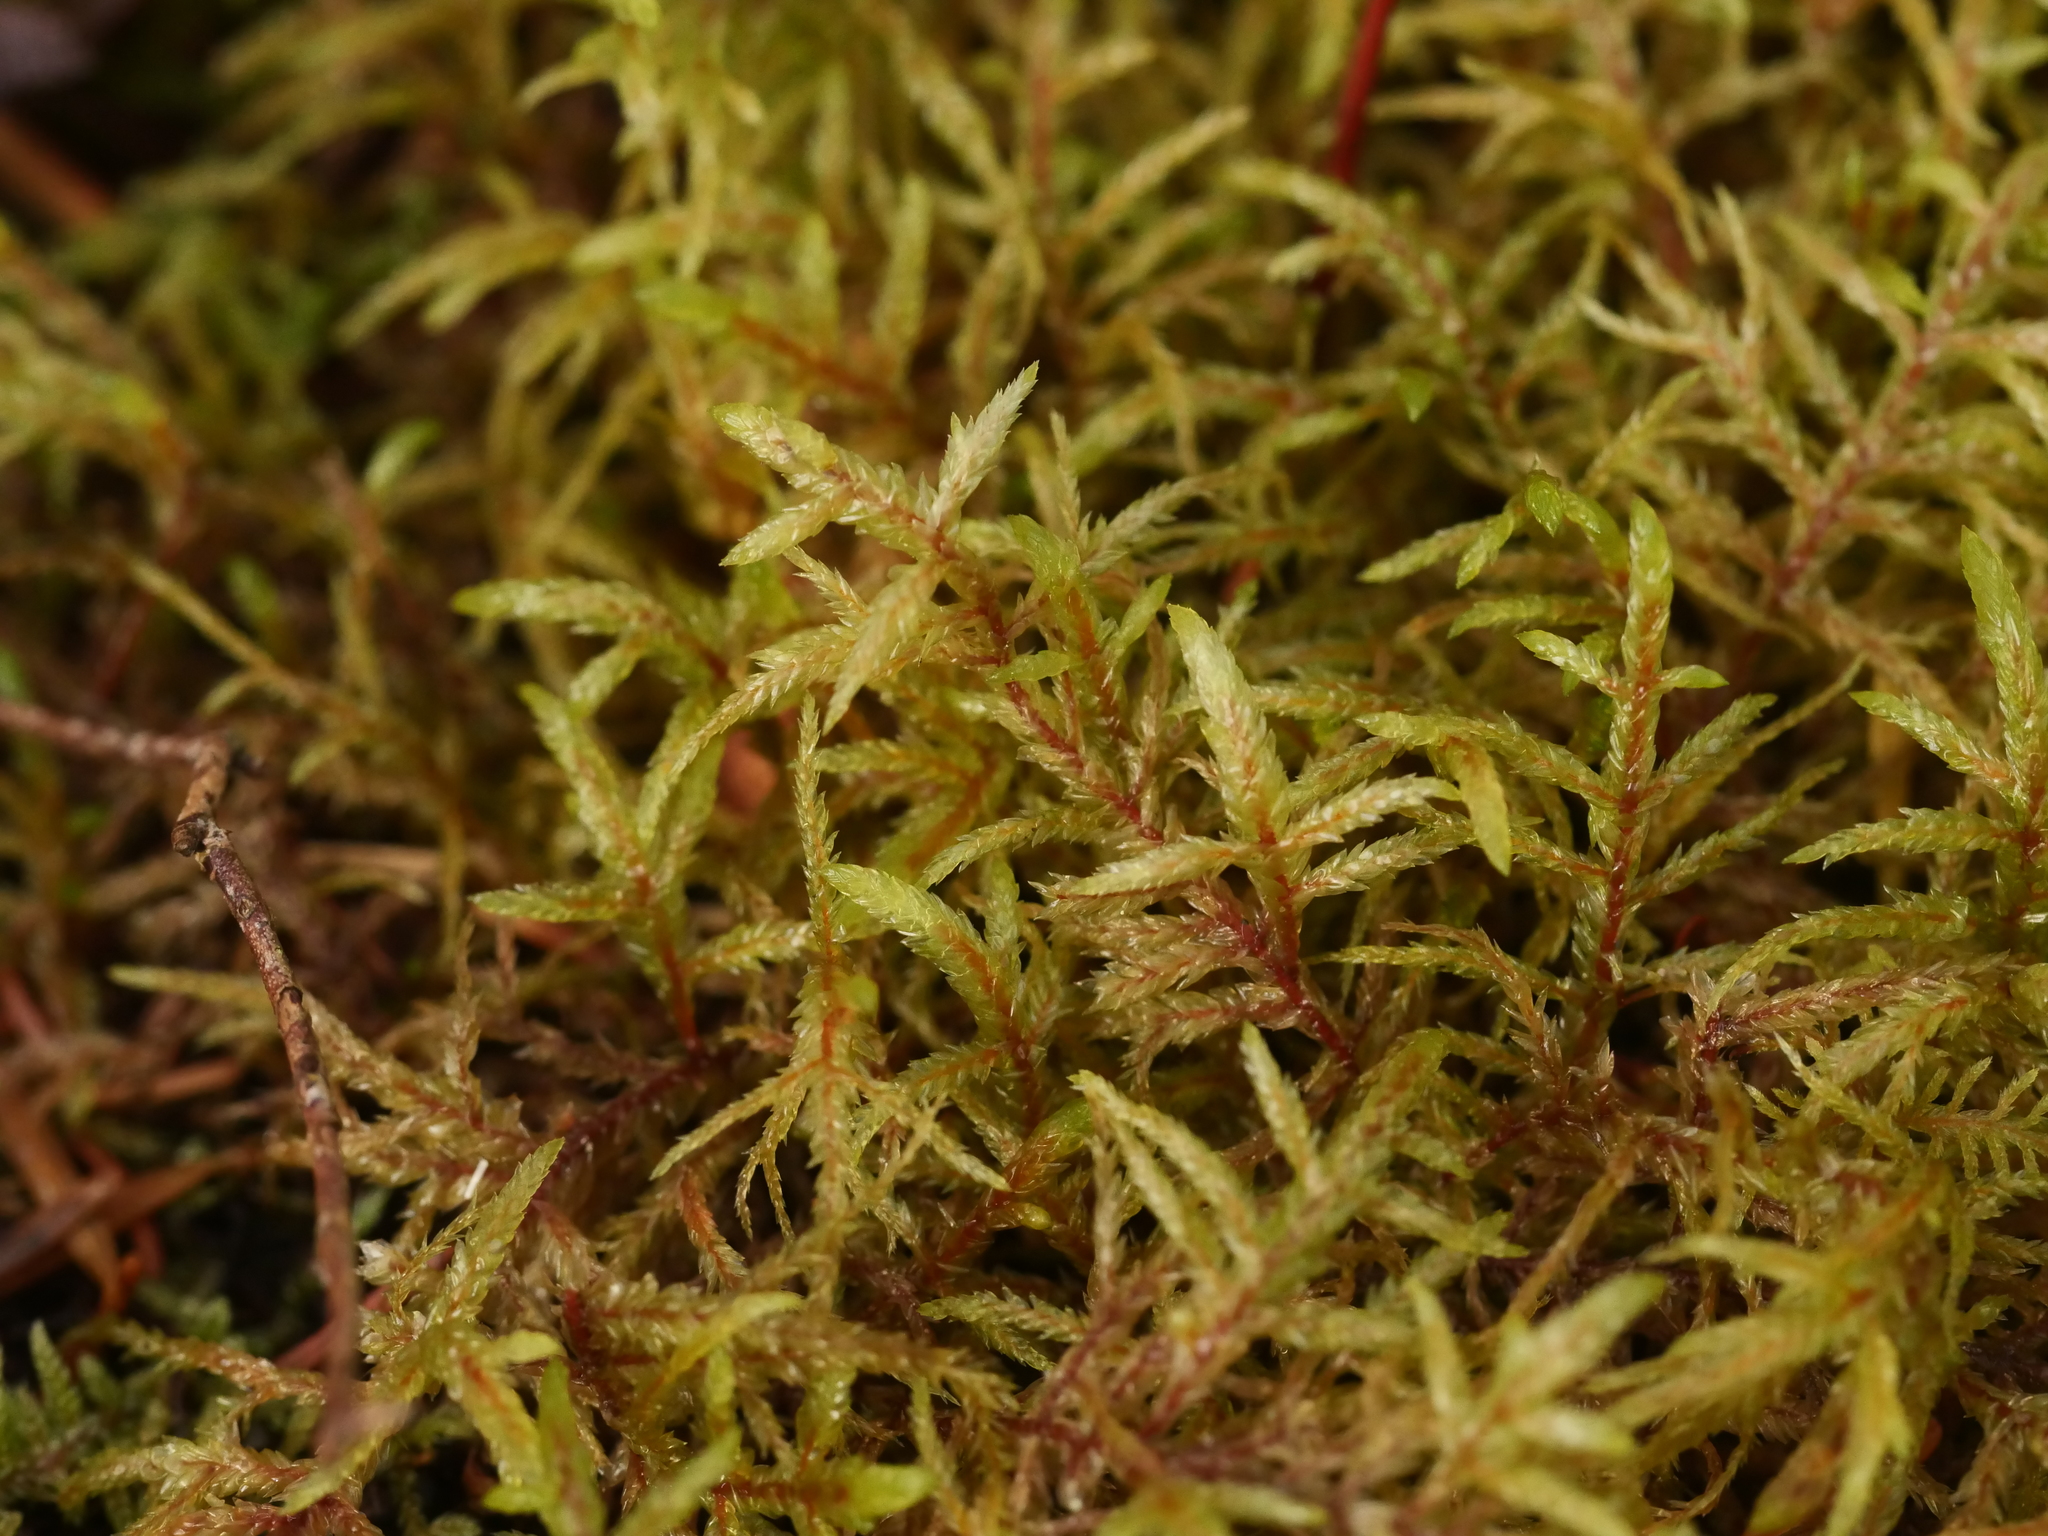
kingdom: Plantae
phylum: Bryophyta
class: Bryopsida
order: Hypnales
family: Hylocomiaceae
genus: Pleurozium
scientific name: Pleurozium schreberi
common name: Red-stemmed feather moss
